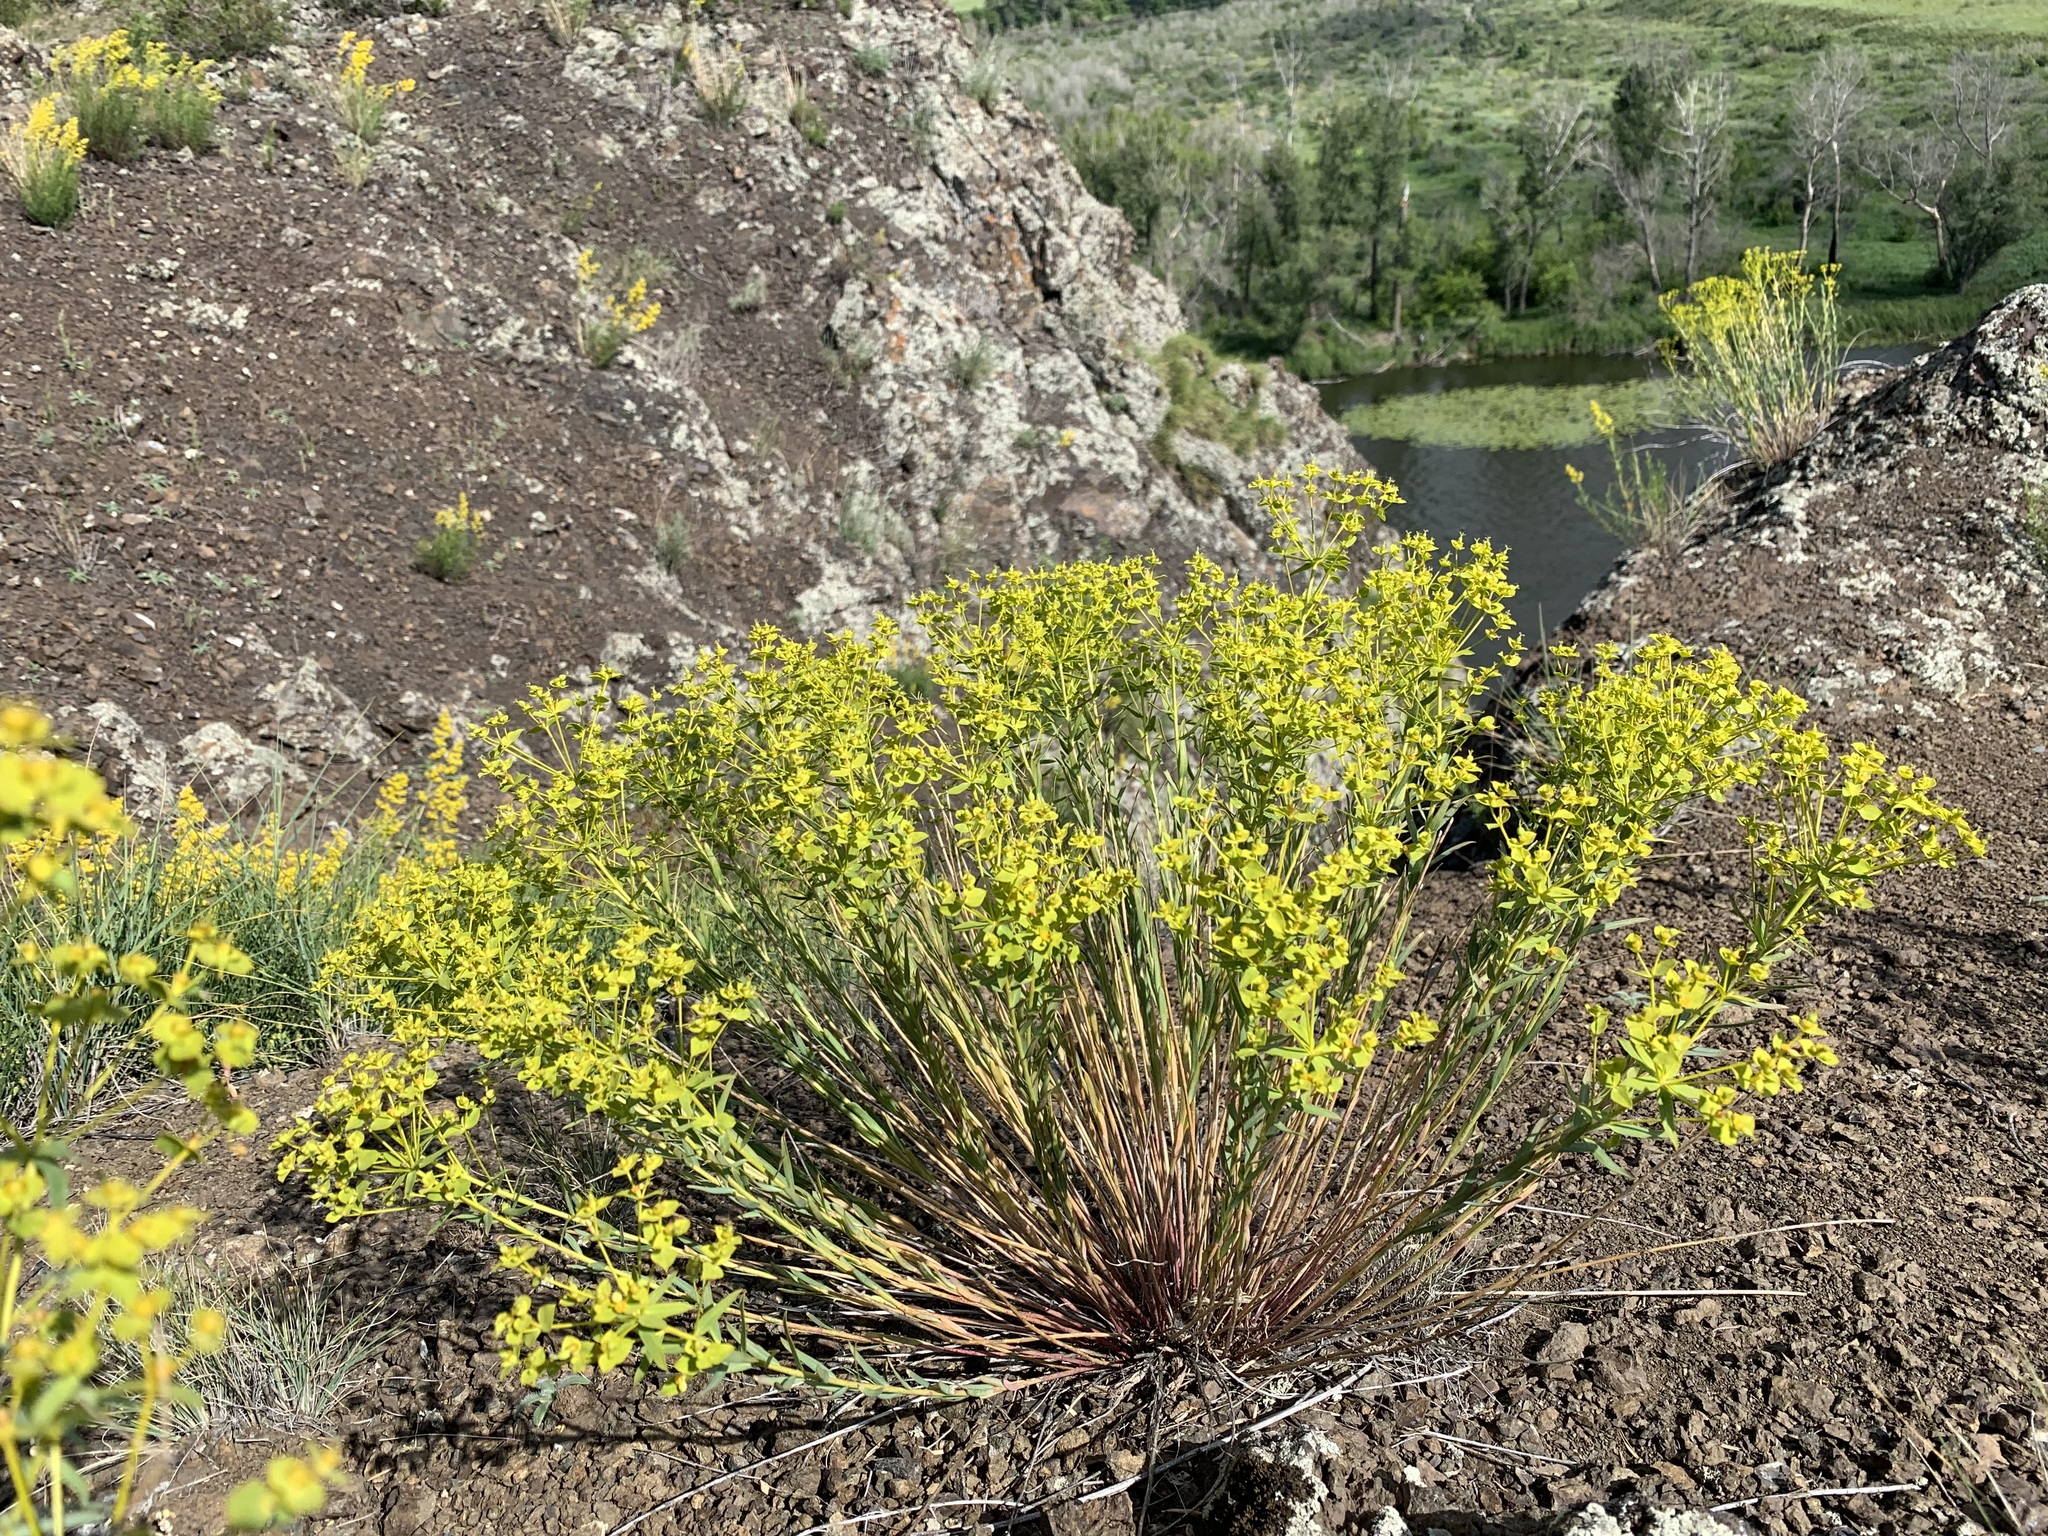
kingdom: Plantae
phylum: Tracheophyta
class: Magnoliopsida
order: Malpighiales
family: Euphorbiaceae
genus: Euphorbia
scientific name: Euphorbia seguieriana
